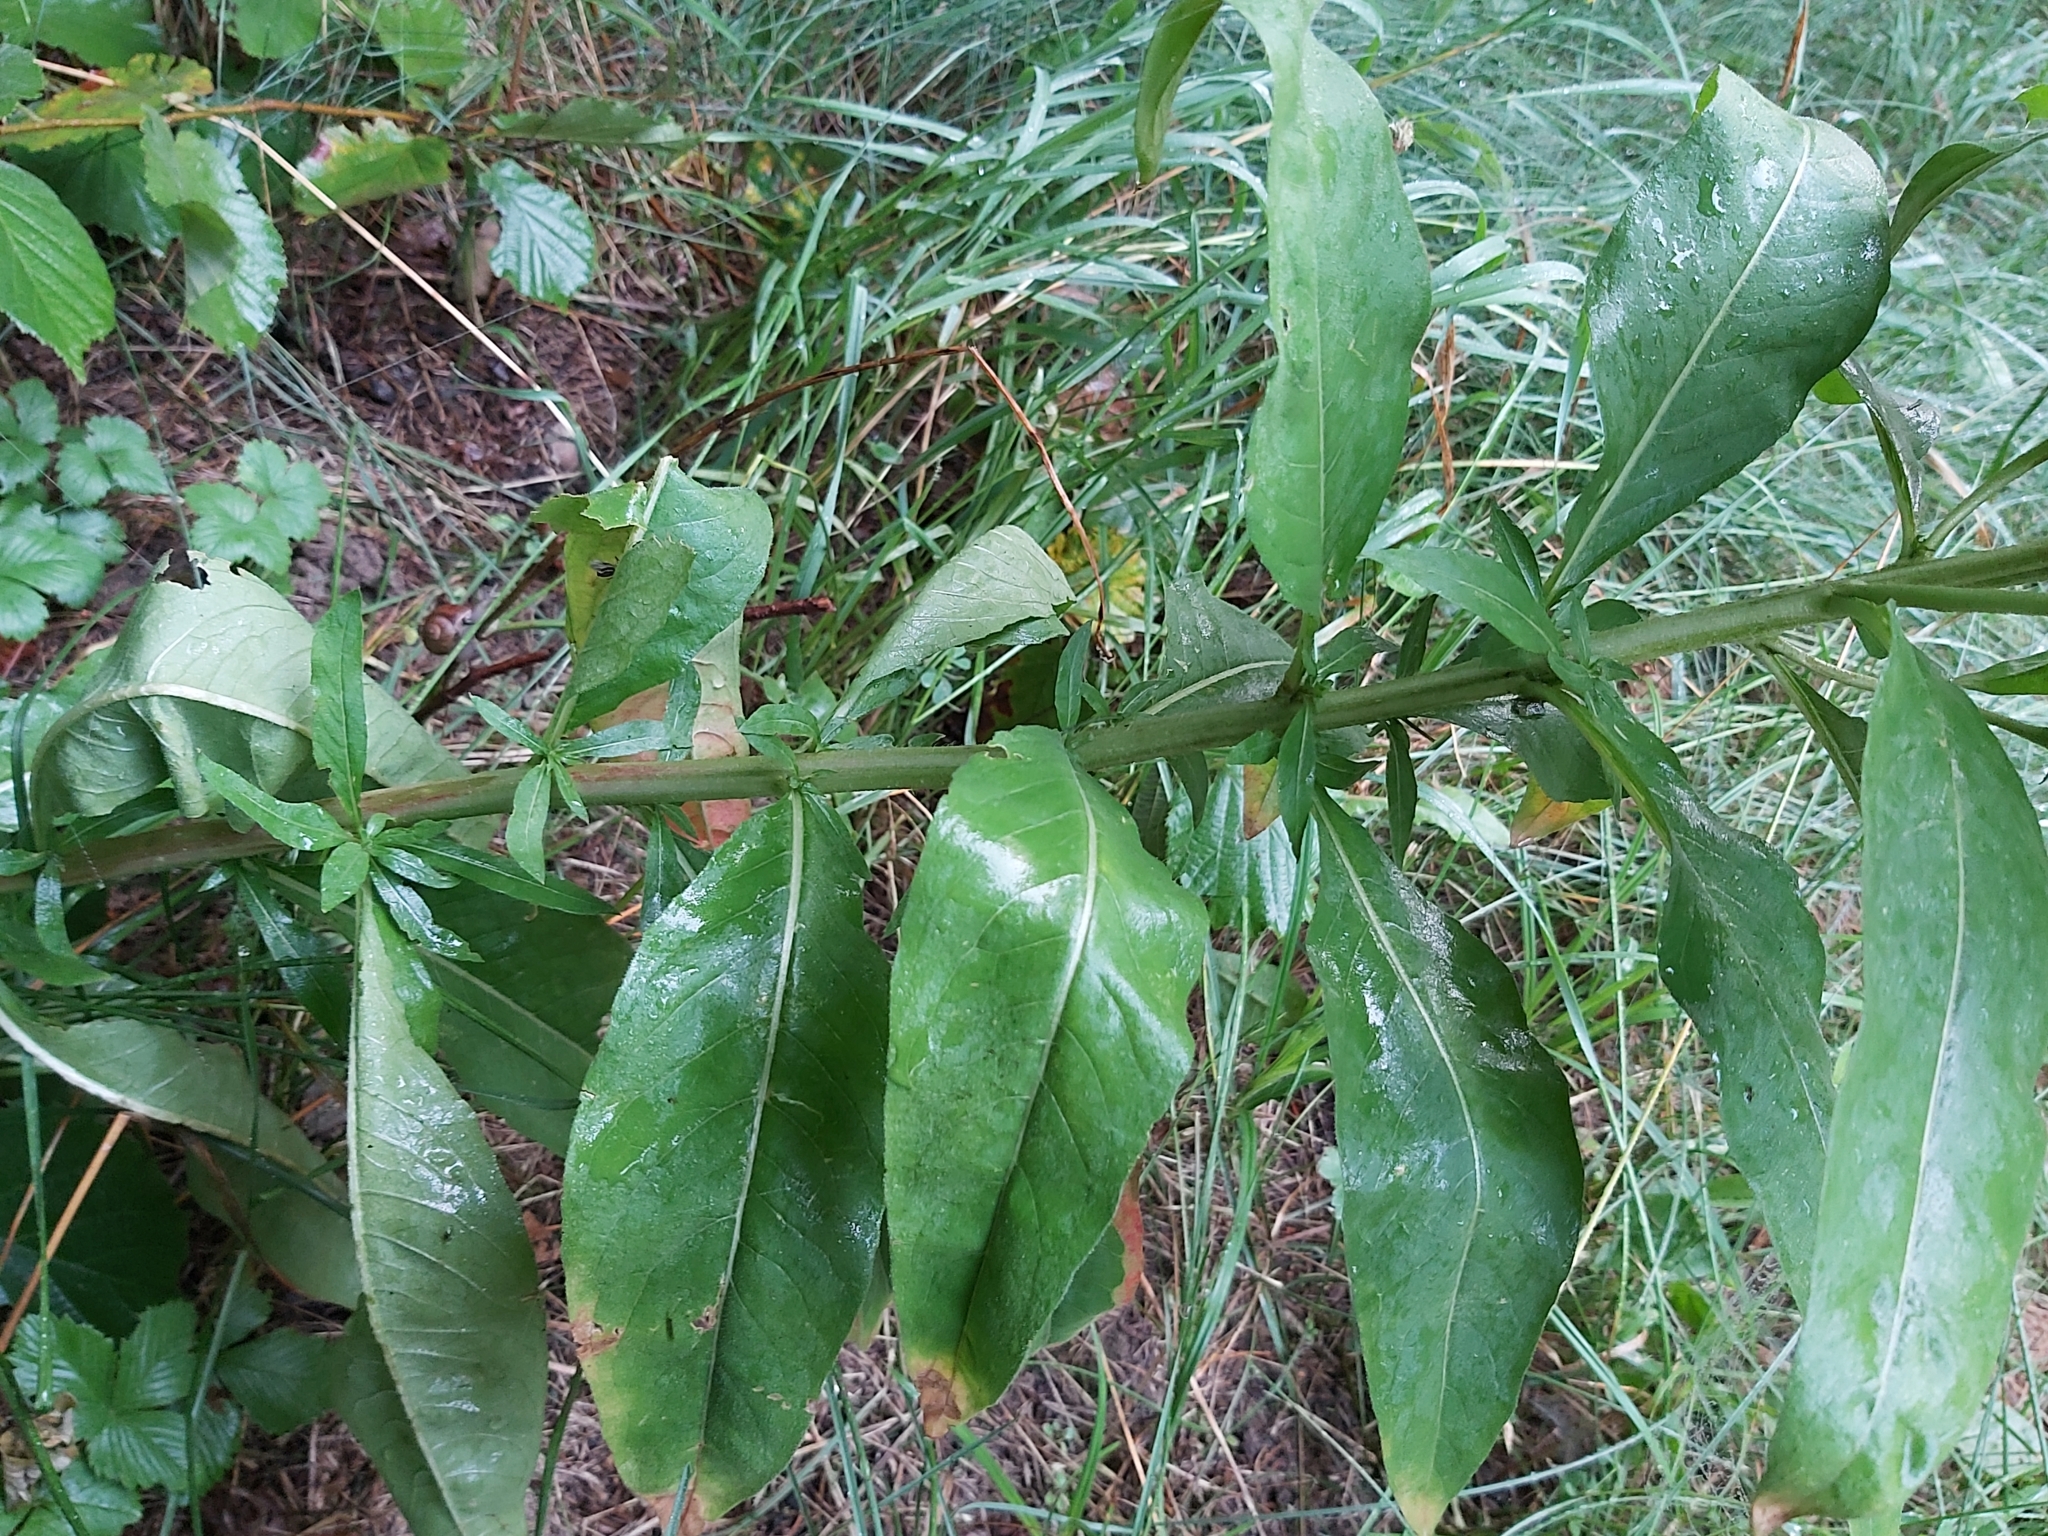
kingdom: Plantae
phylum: Tracheophyta
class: Magnoliopsida
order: Myrtales
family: Onagraceae
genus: Oenothera
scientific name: Oenothera biennis
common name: Common evening-primrose
